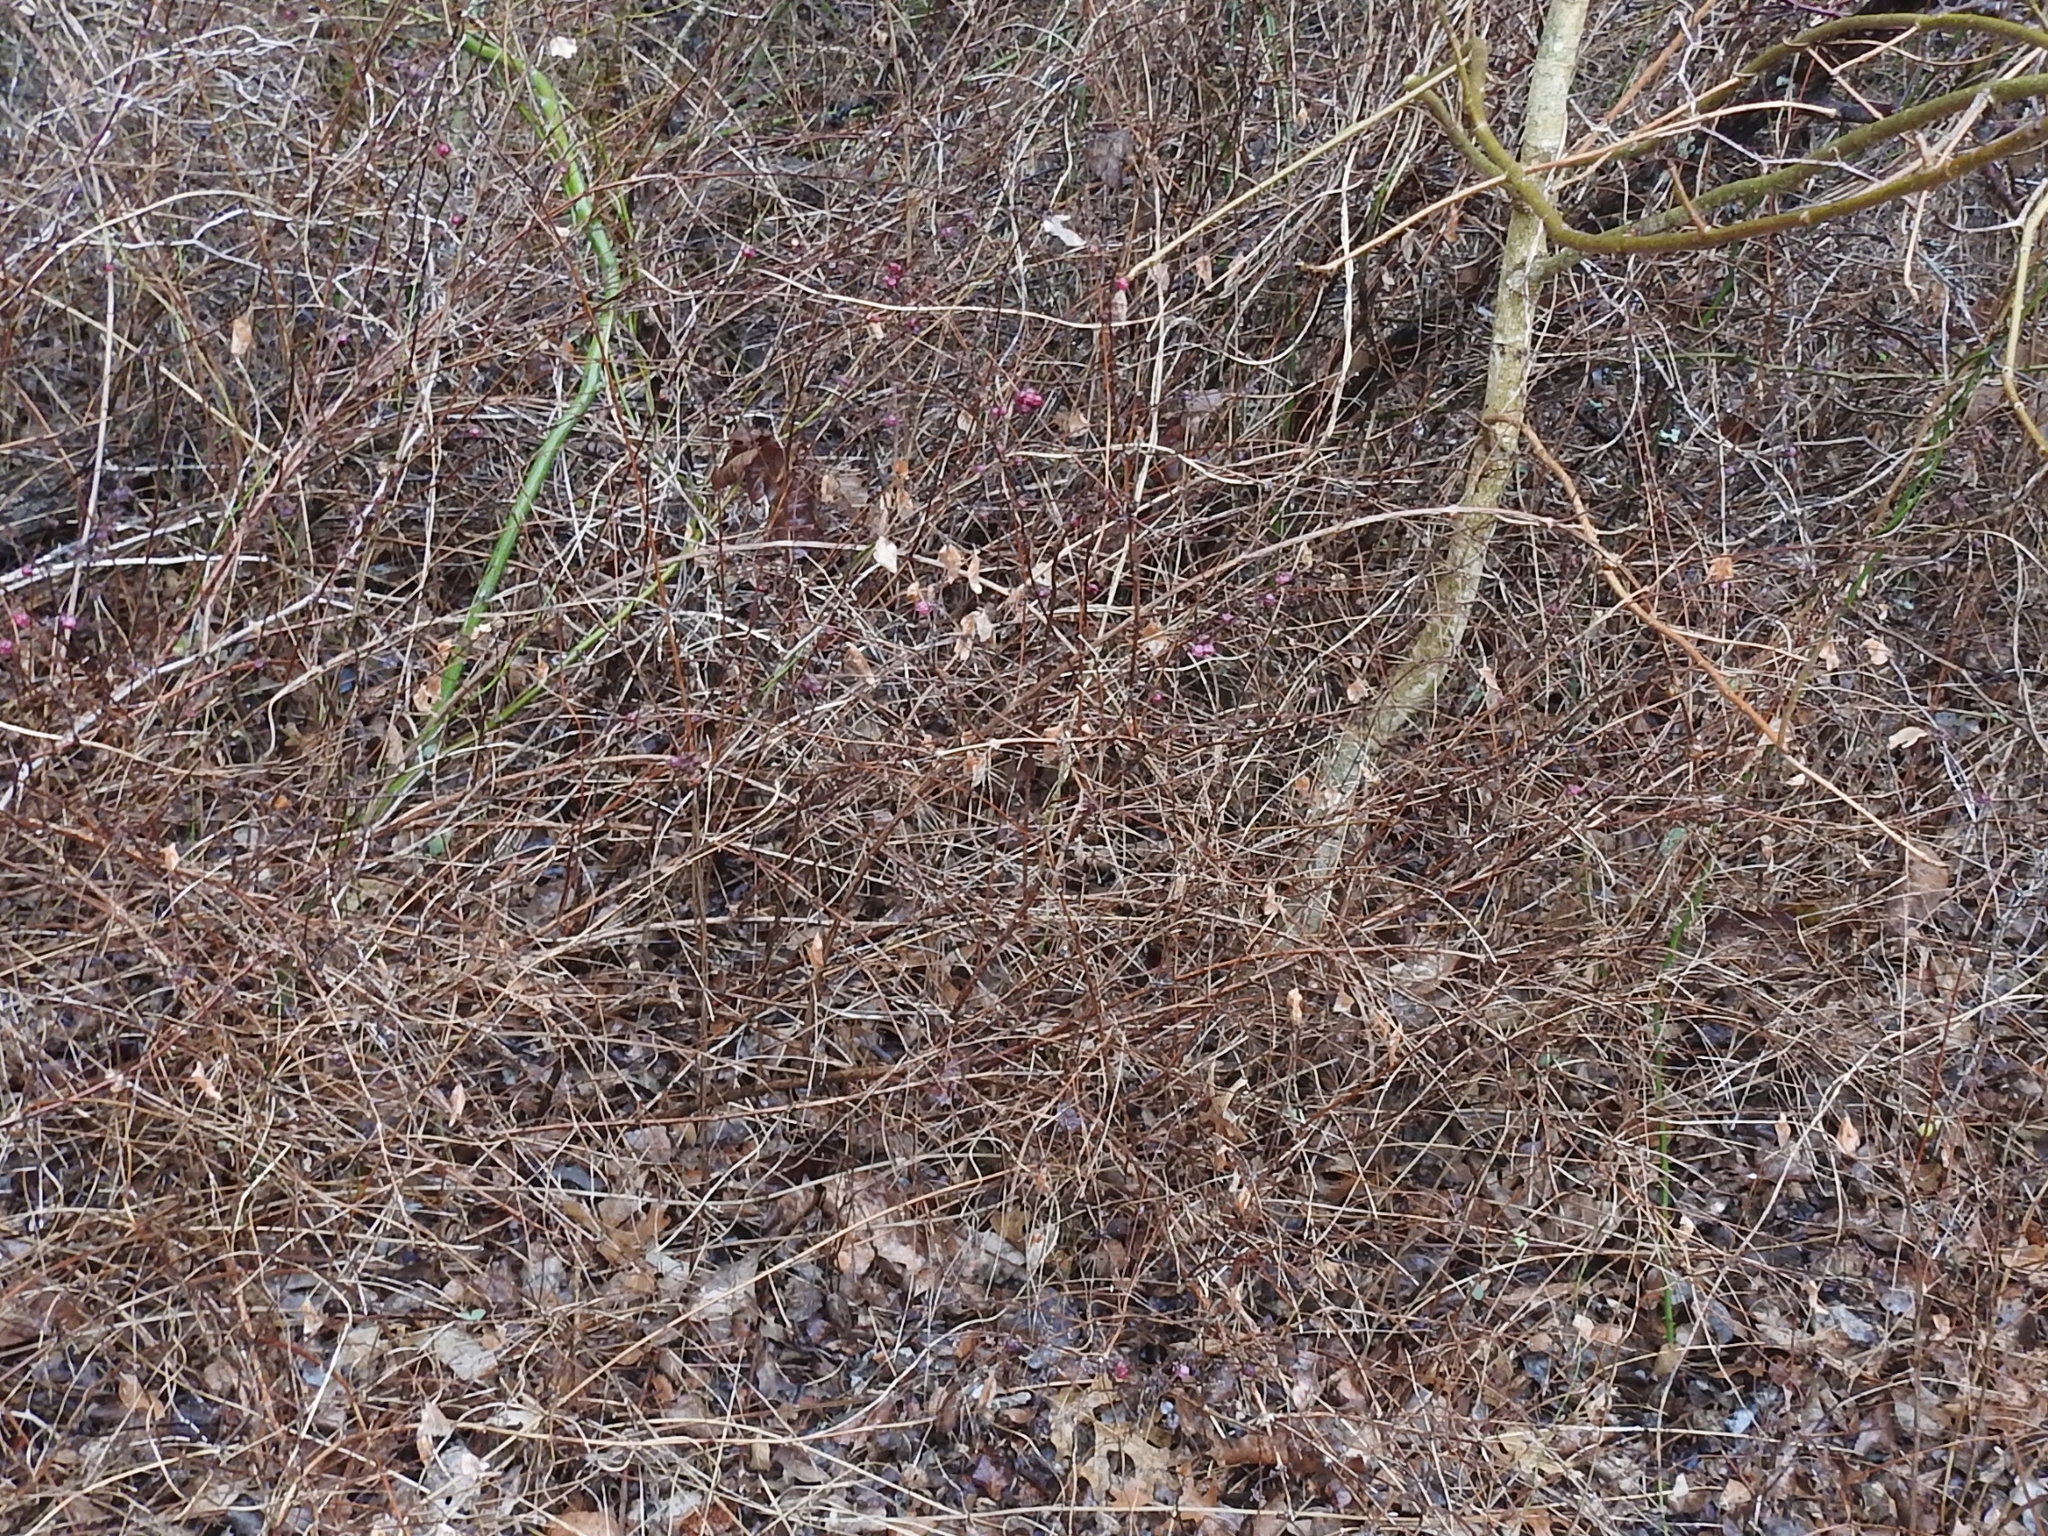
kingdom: Plantae
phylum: Tracheophyta
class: Magnoliopsida
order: Dipsacales
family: Caprifoliaceae
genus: Symphoricarpos
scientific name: Symphoricarpos orbiculatus
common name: Coralberry
